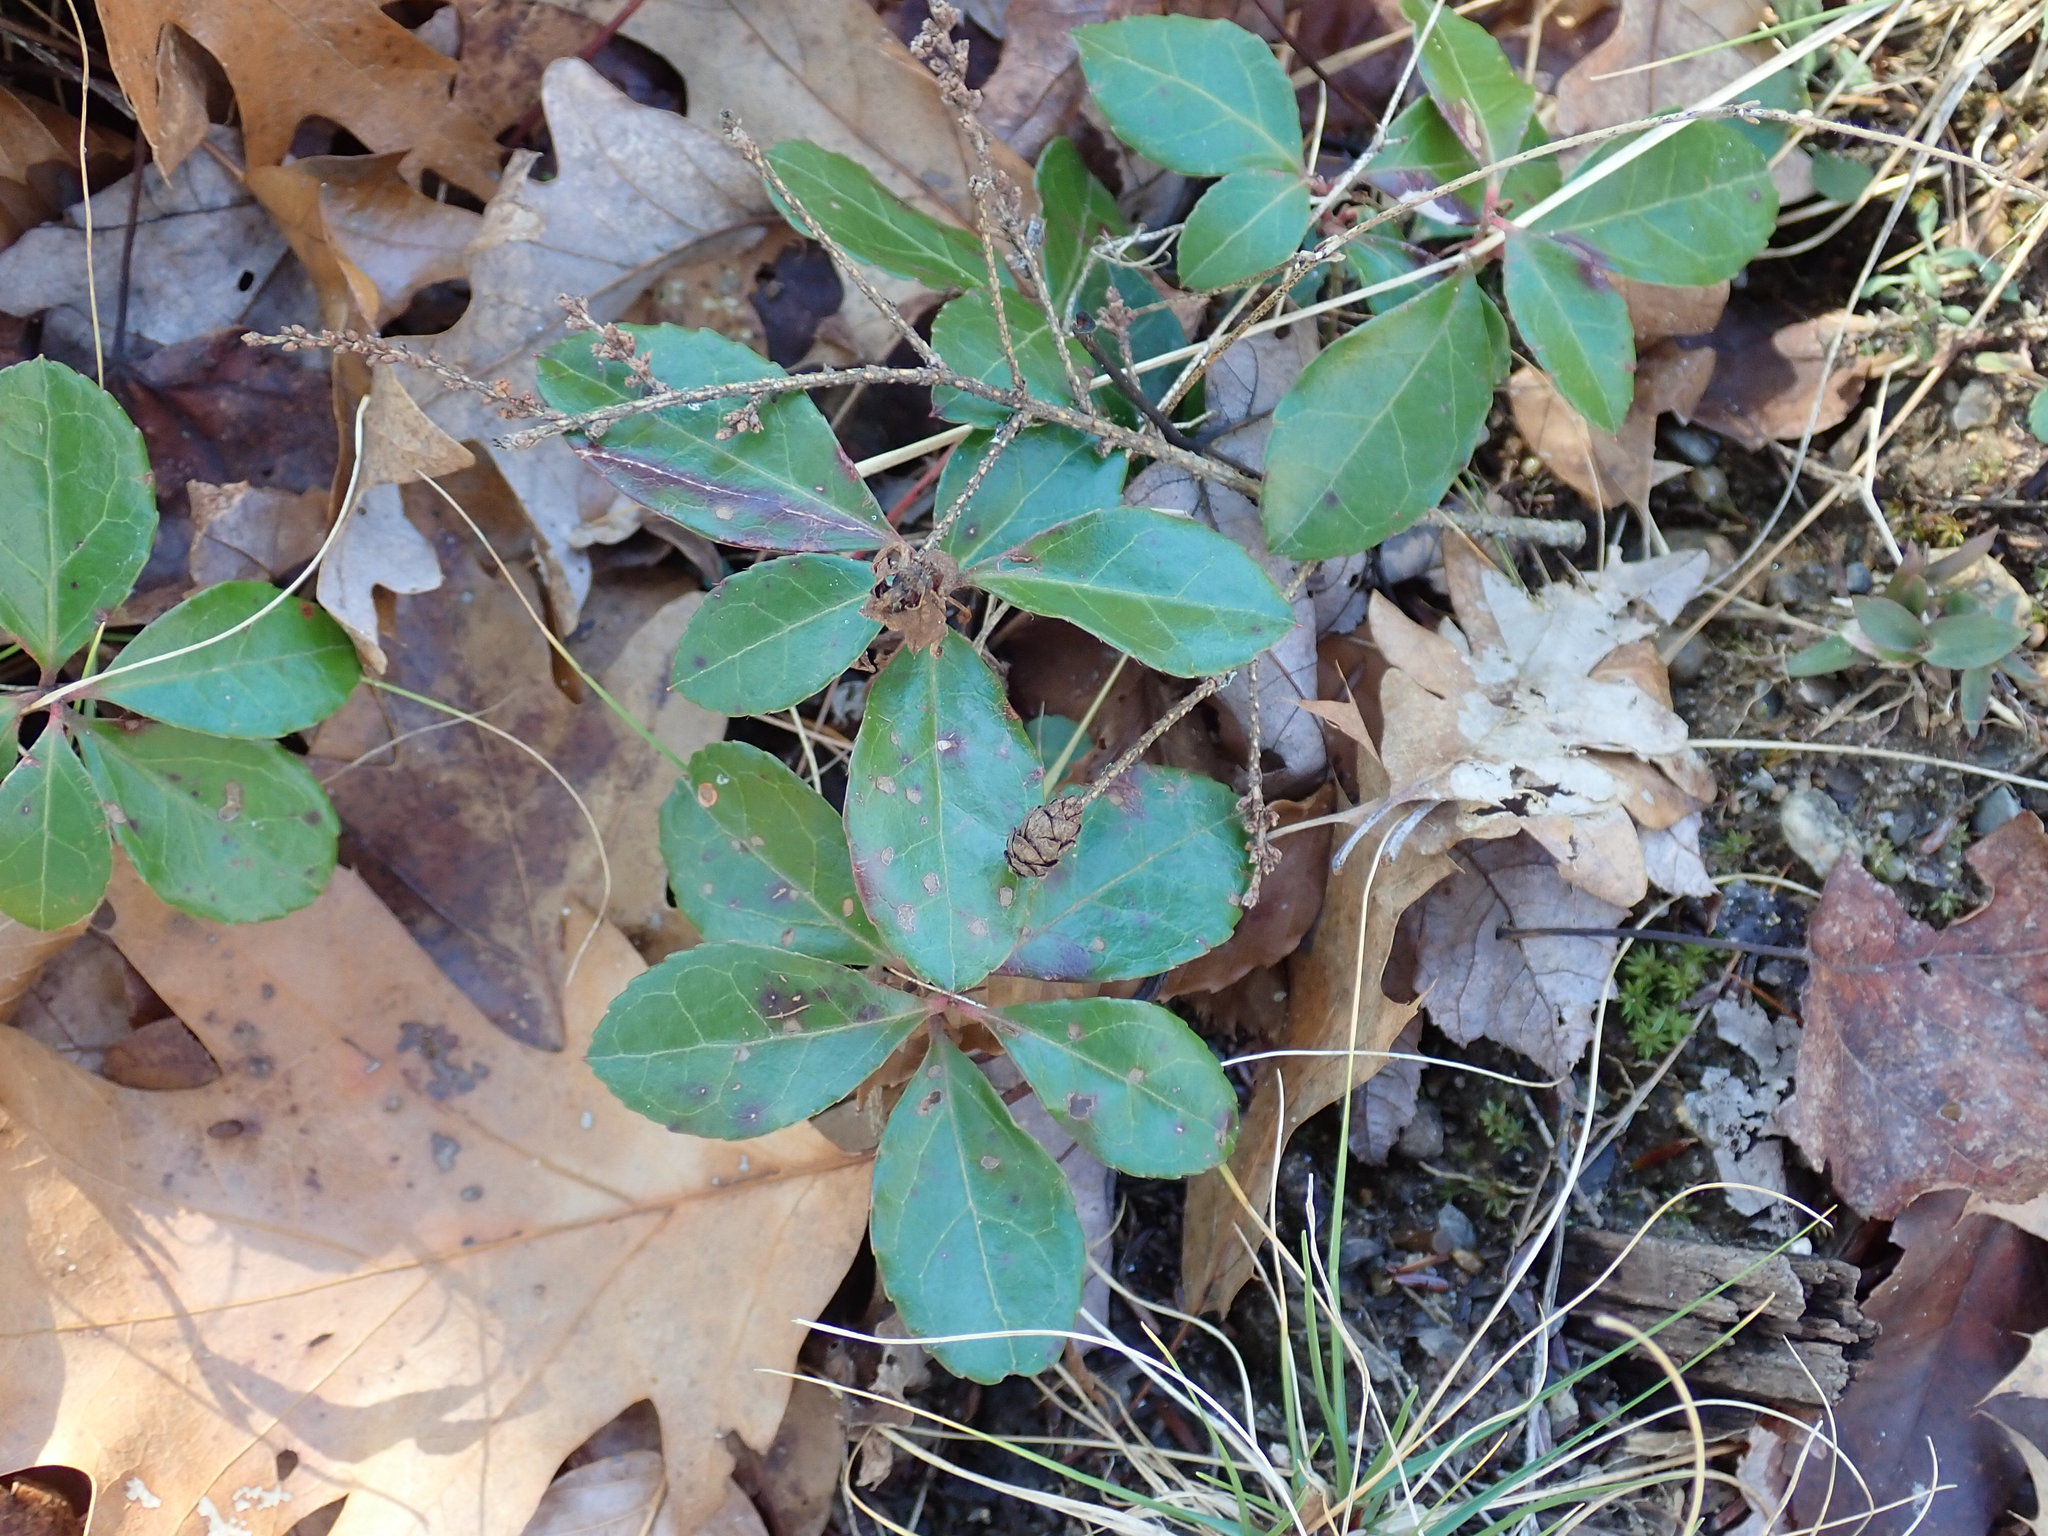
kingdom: Plantae
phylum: Tracheophyta
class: Magnoliopsida
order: Ericales
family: Ericaceae
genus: Gaultheria
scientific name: Gaultheria procumbens
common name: Checkerberry
